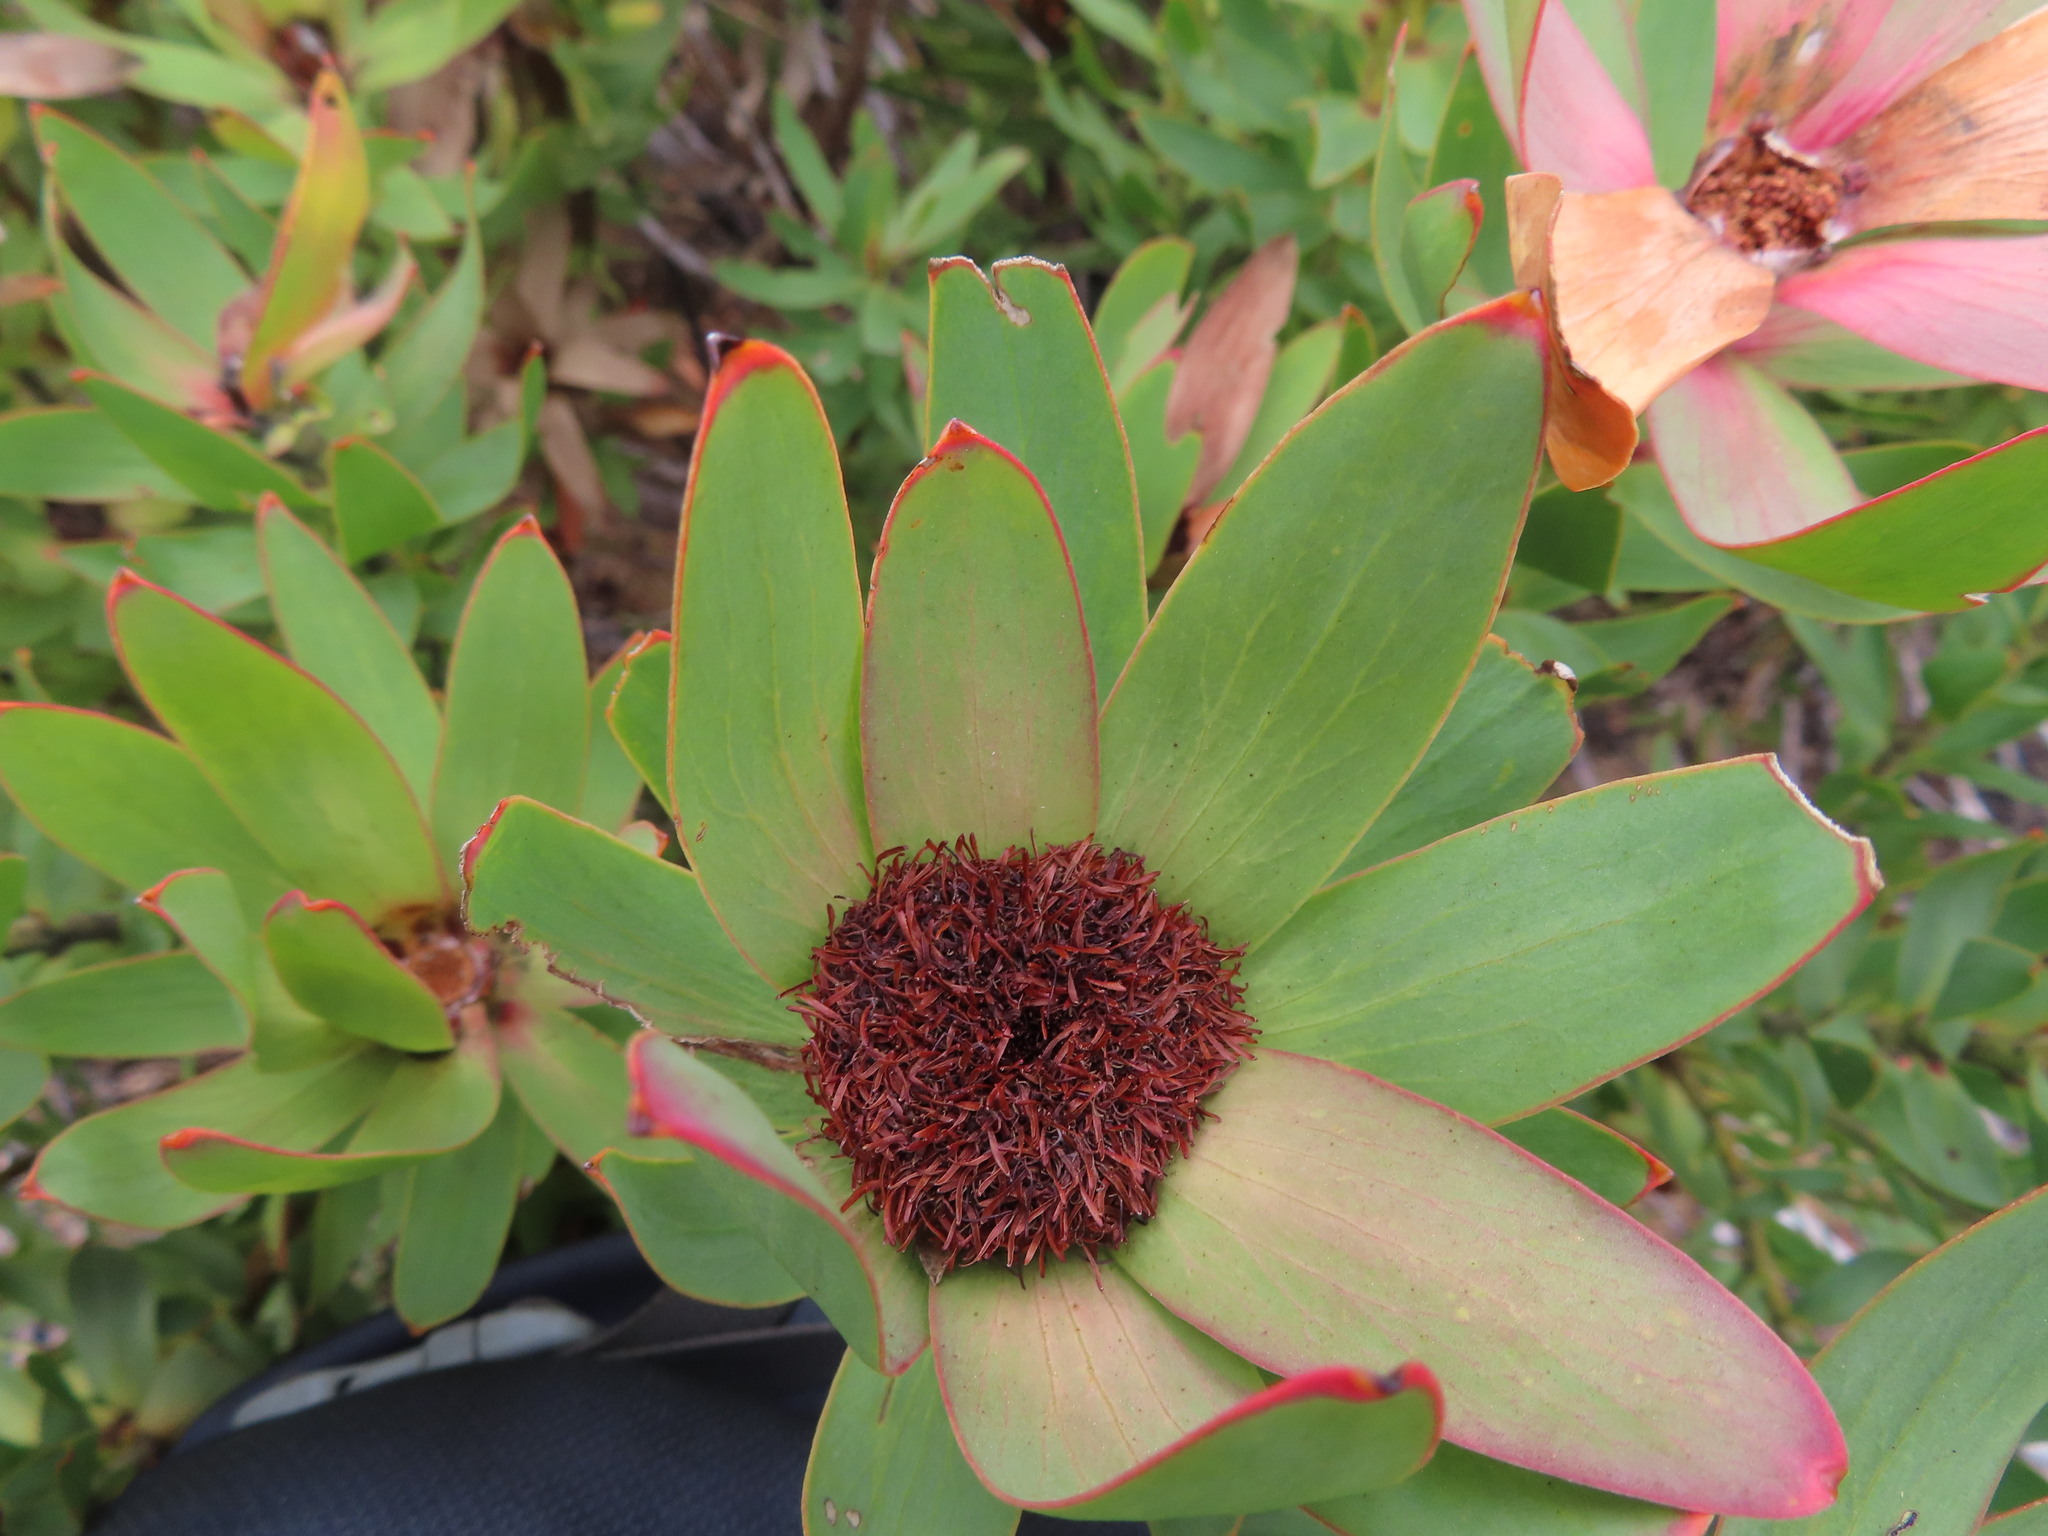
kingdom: Plantae
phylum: Tracheophyta
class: Magnoliopsida
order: Proteales
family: Proteaceae
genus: Leucadendron
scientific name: Leucadendron sessile
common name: Western sunbush
